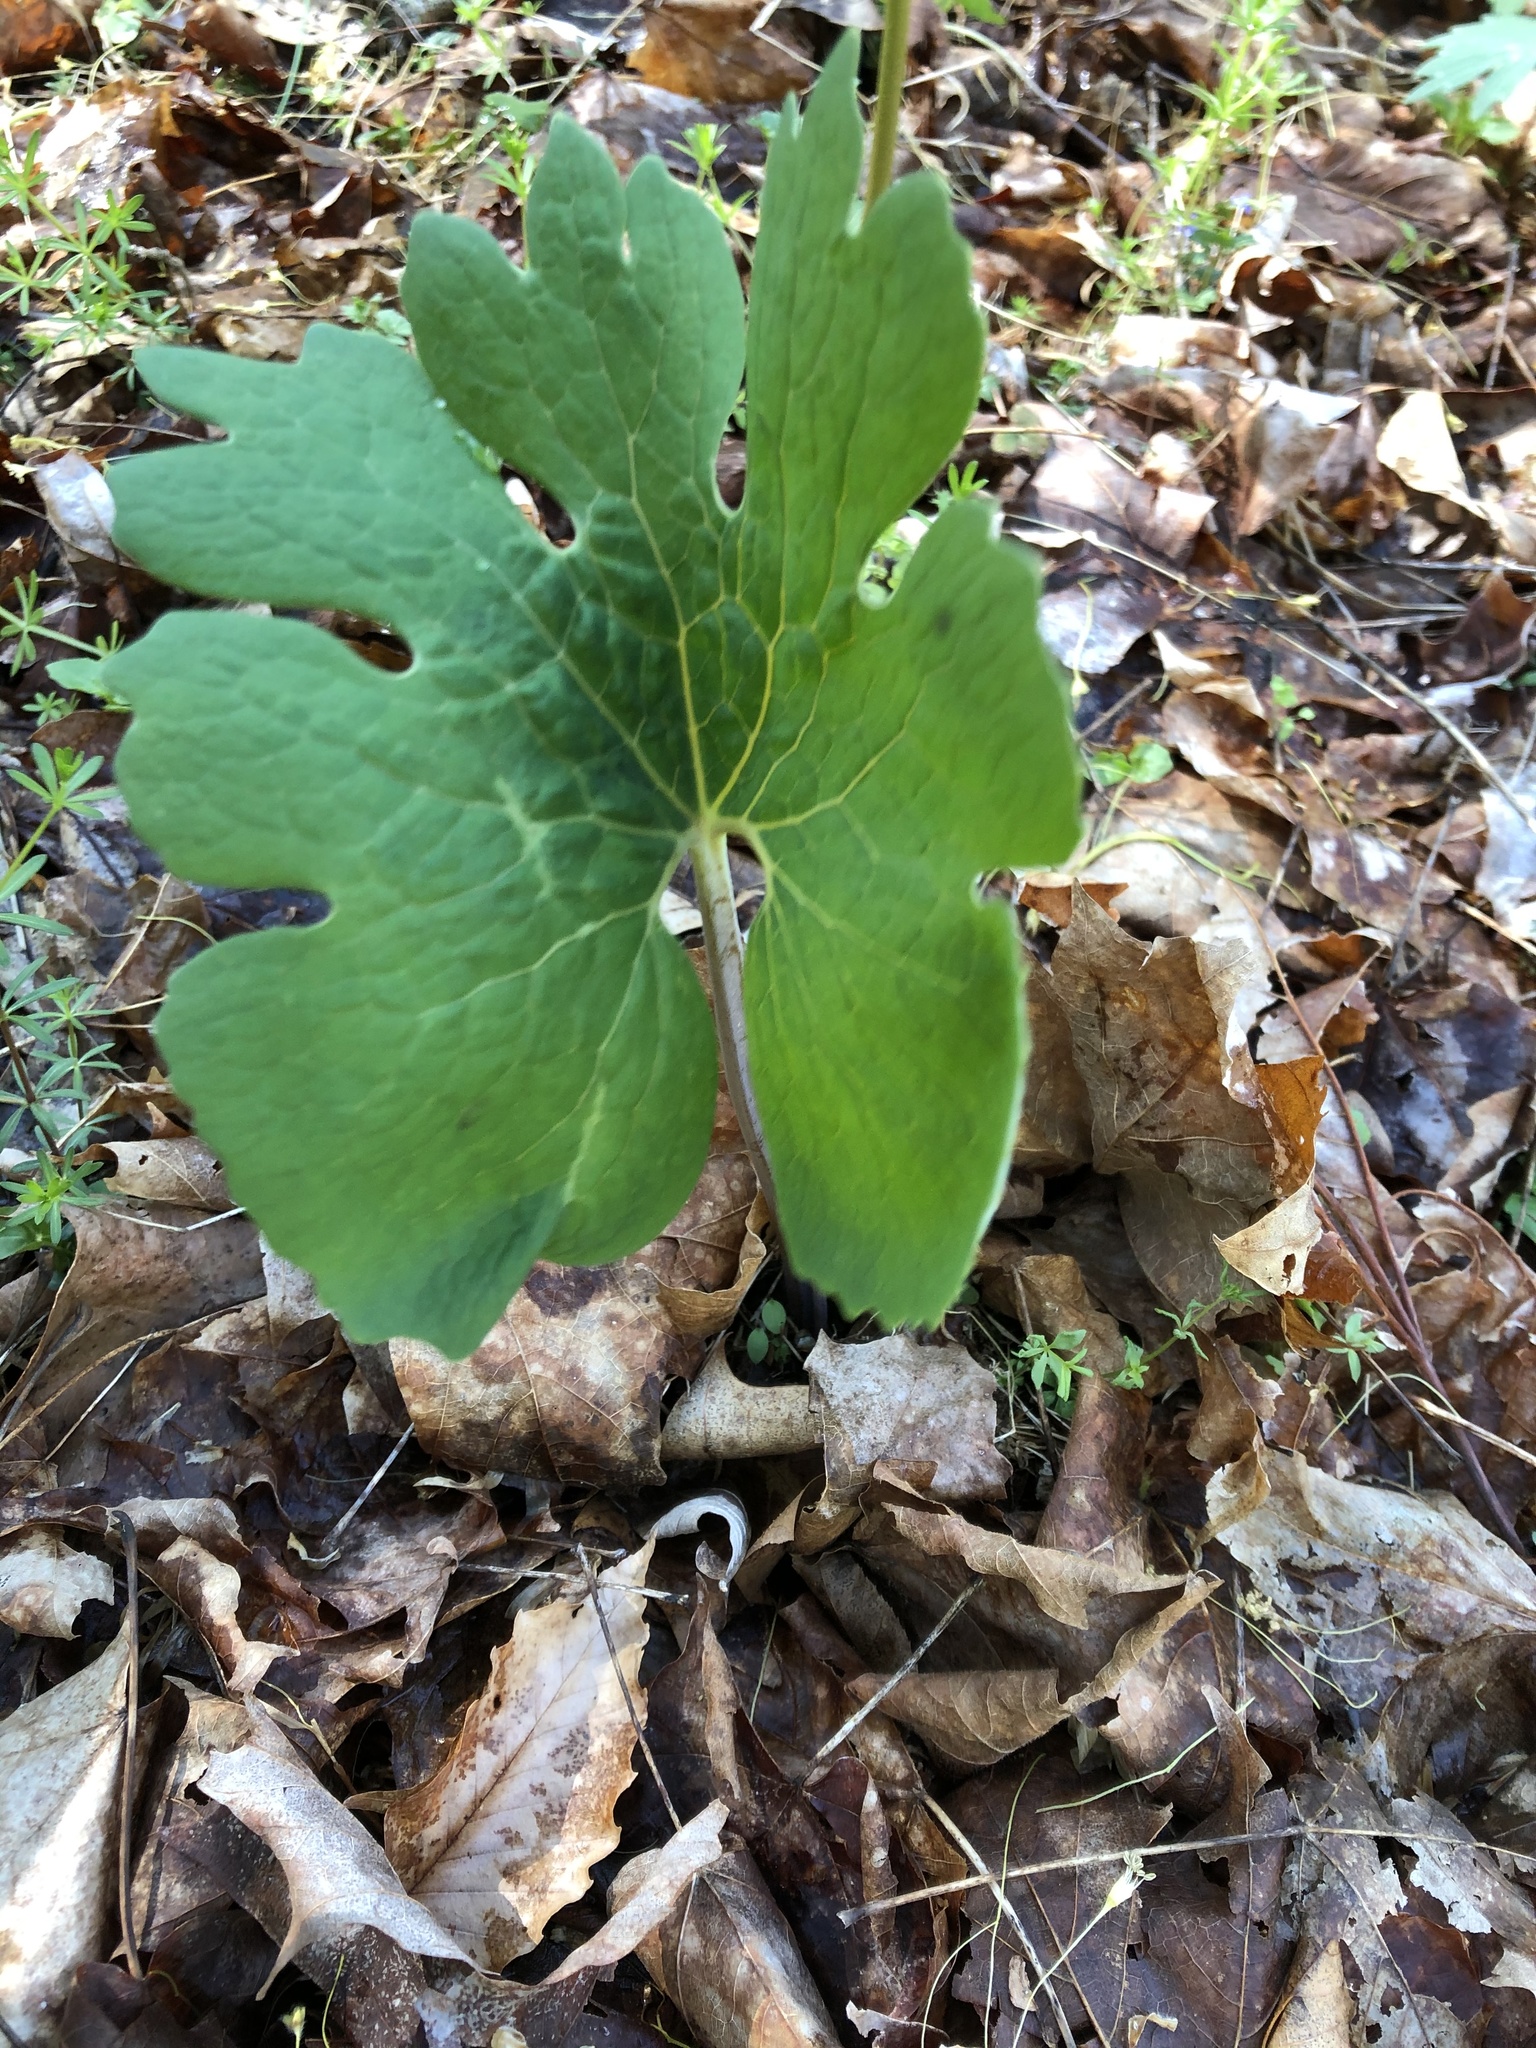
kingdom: Plantae
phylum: Tracheophyta
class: Magnoliopsida
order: Ranunculales
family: Papaveraceae
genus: Sanguinaria
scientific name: Sanguinaria canadensis
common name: Bloodroot
